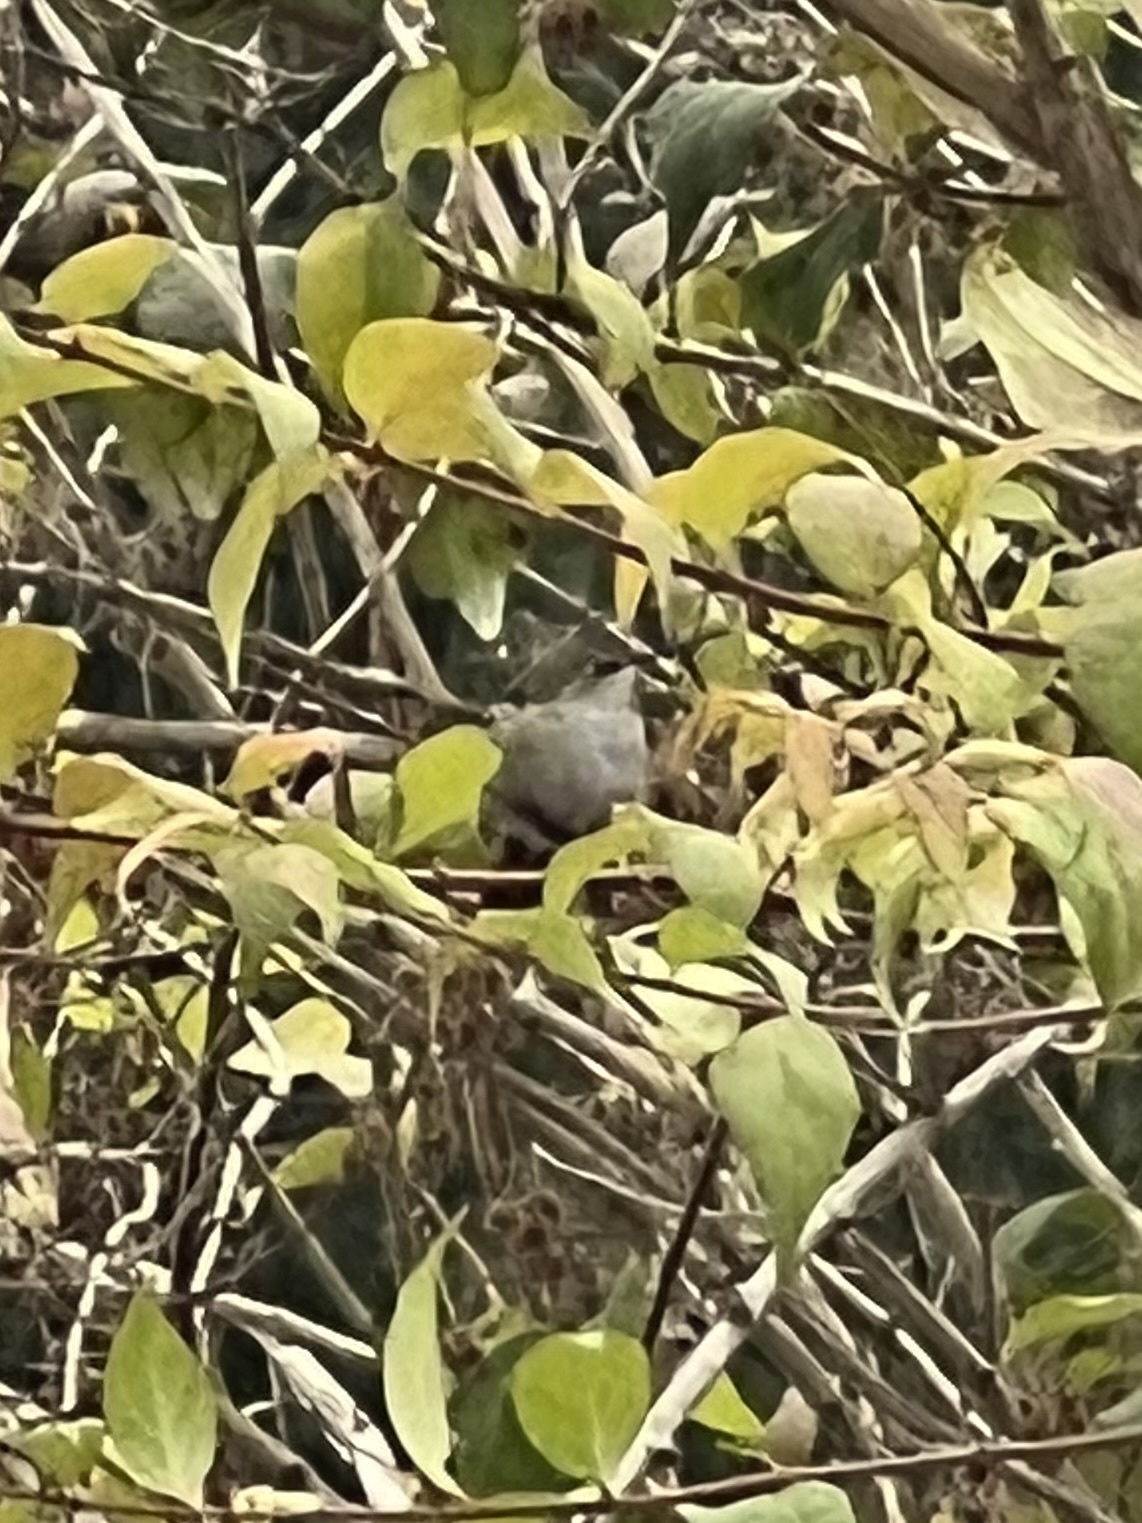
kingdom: Animalia
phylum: Chordata
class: Aves
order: Apodiformes
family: Trochilidae
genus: Calypte
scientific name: Calypte anna
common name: Anna's hummingbird
